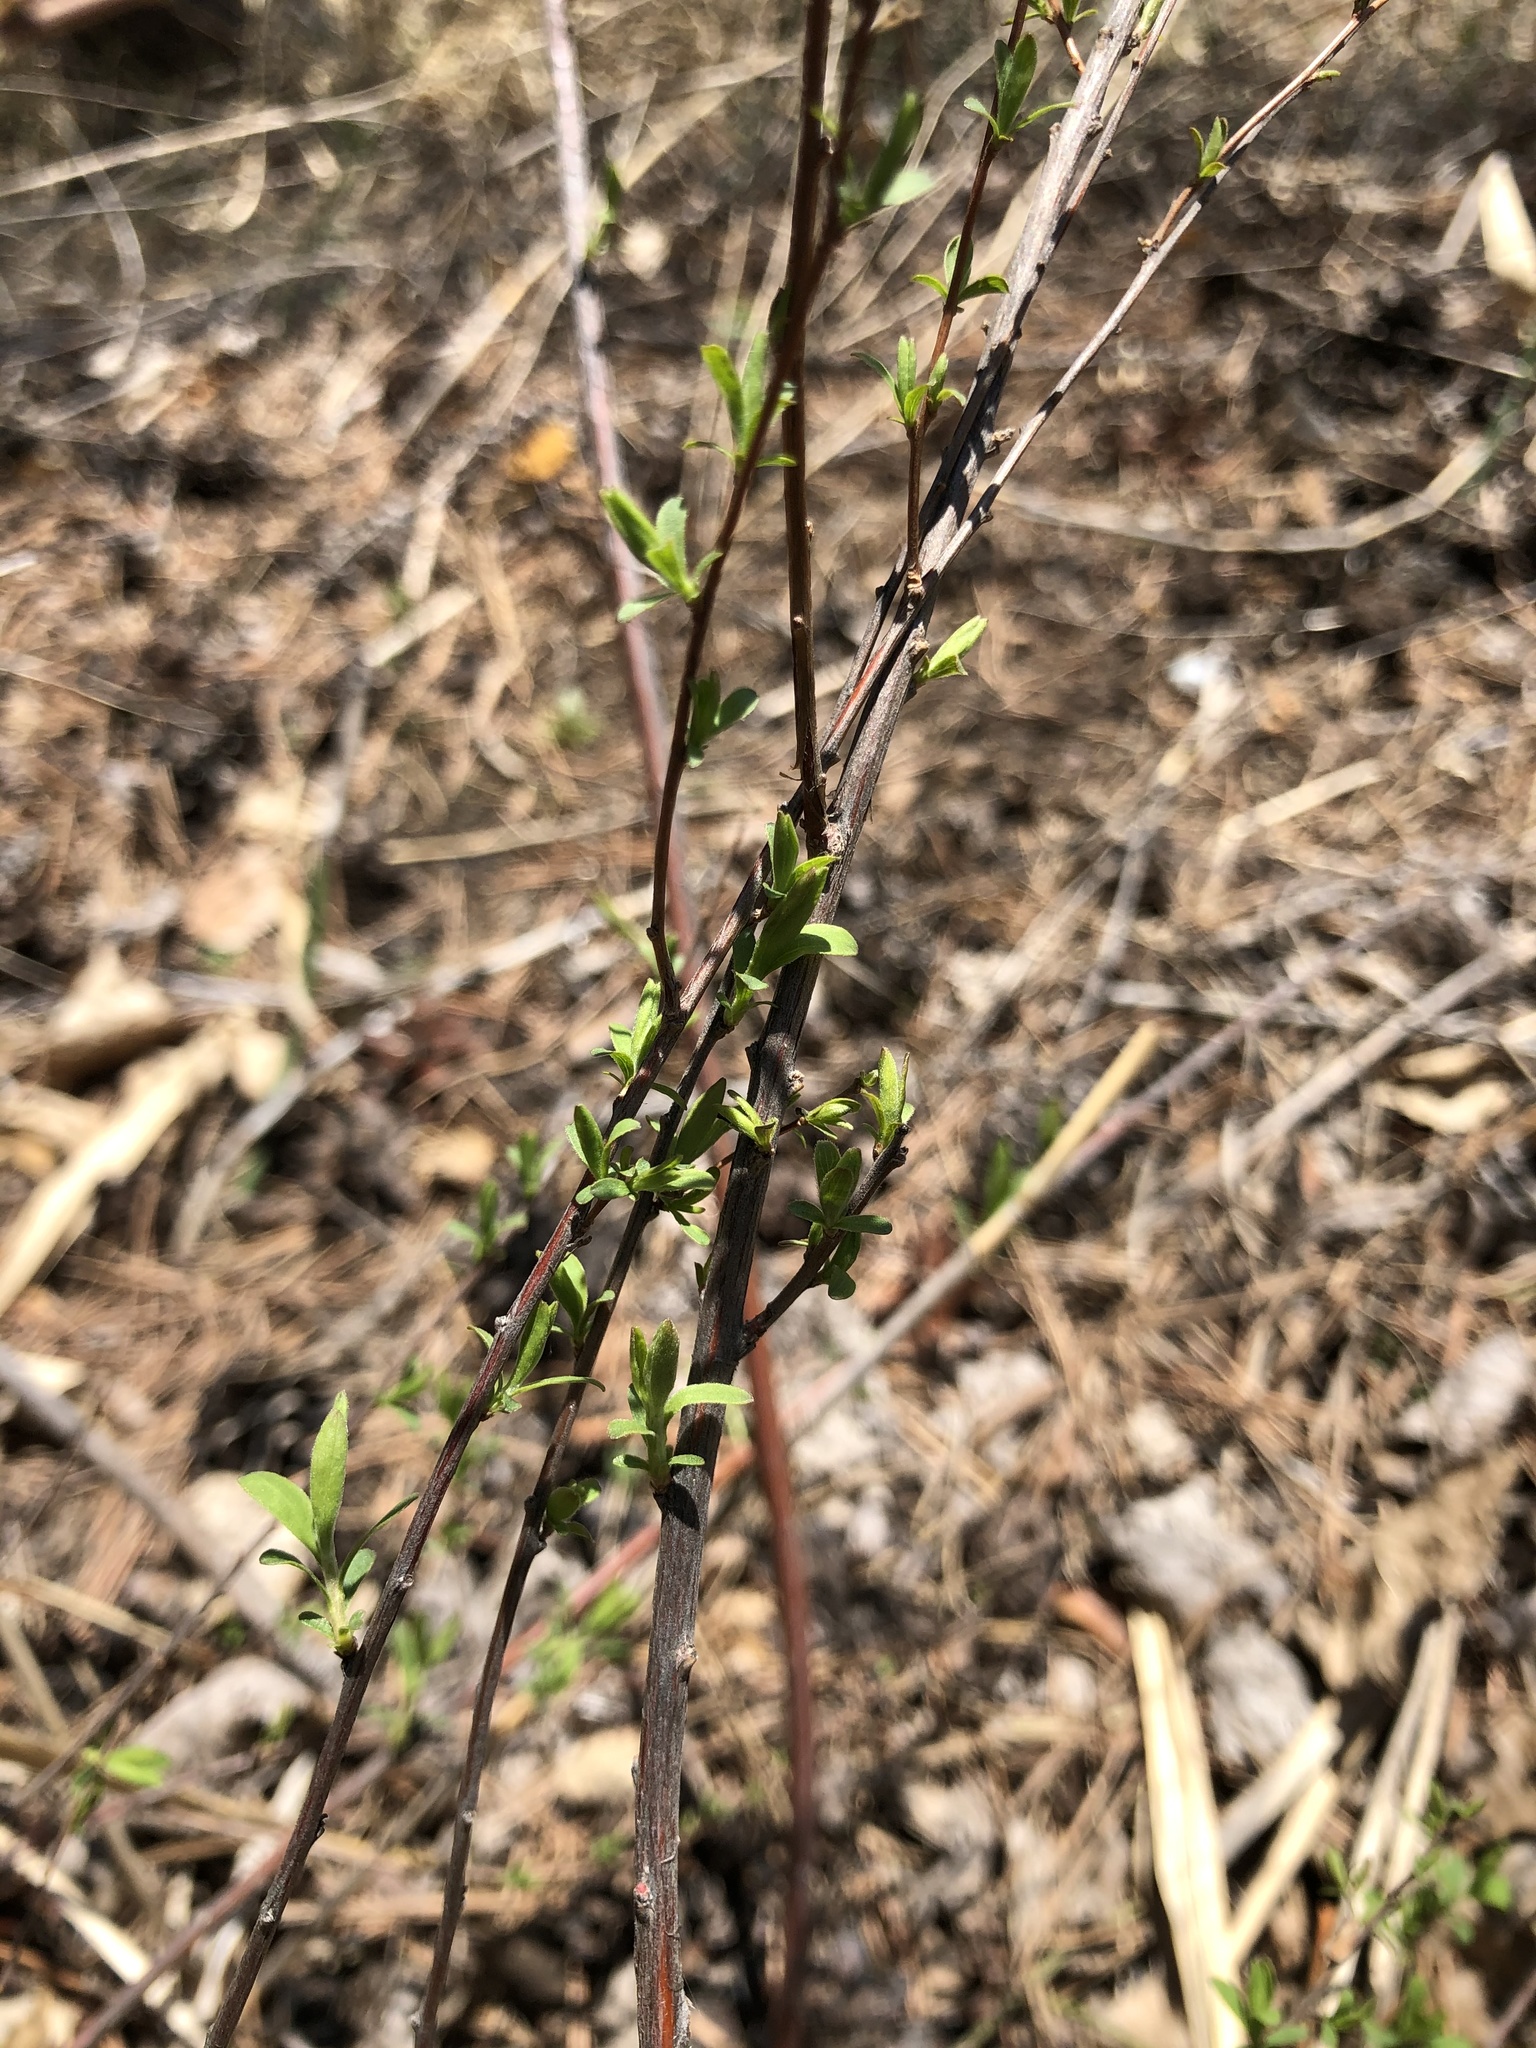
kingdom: Plantae
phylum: Tracheophyta
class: Magnoliopsida
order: Rosales
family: Rosaceae
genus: Spiraea
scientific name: Spiraea crenata
